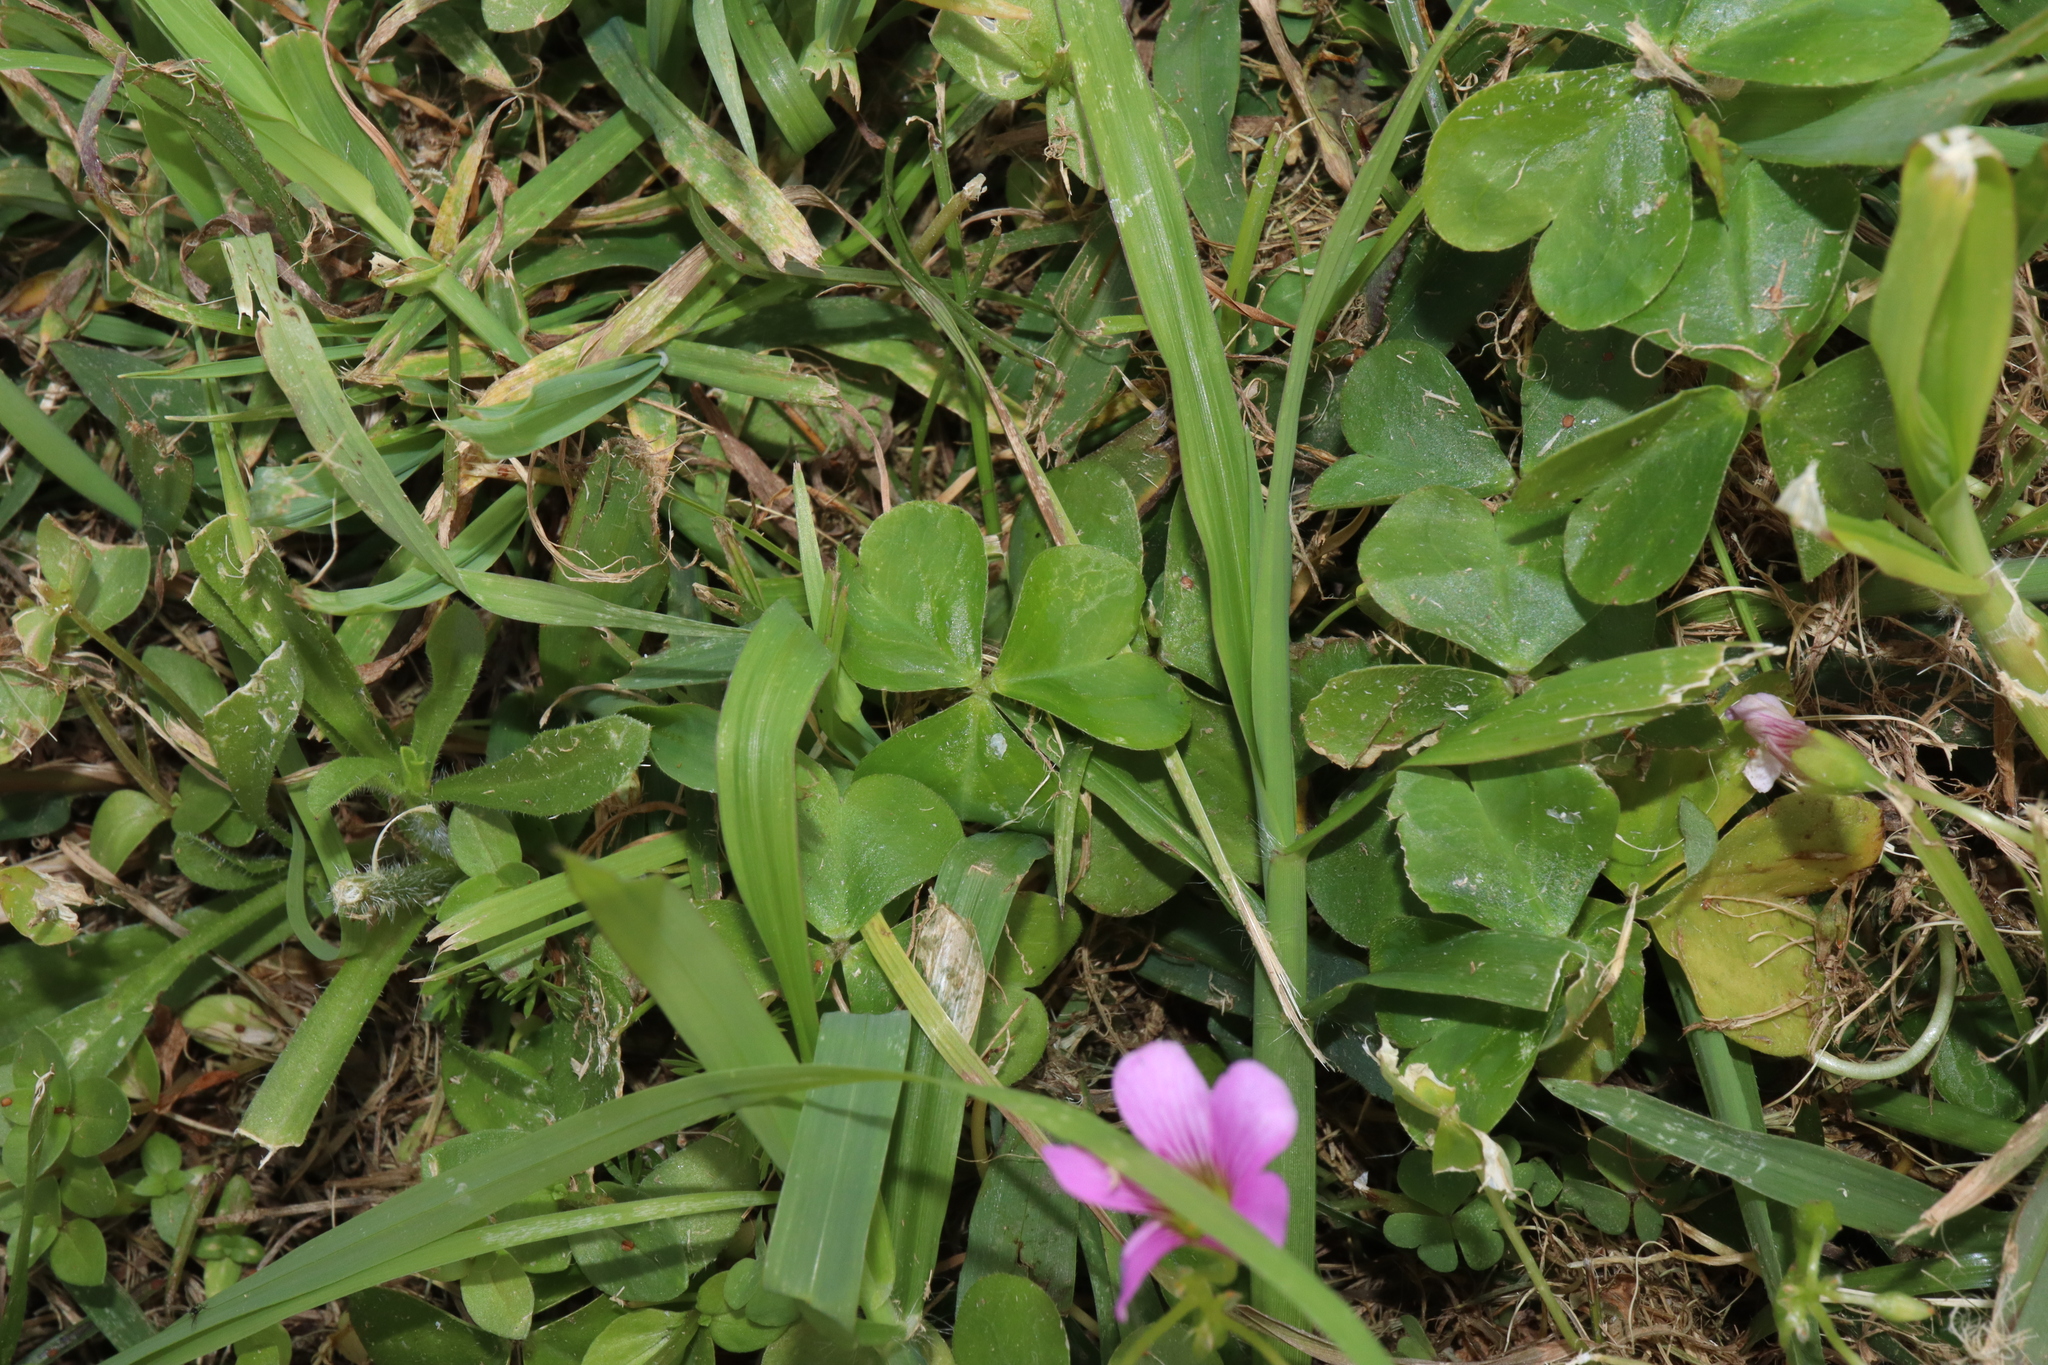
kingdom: Plantae
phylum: Tracheophyta
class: Magnoliopsida
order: Oxalidales
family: Oxalidaceae
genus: Oxalis
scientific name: Oxalis debilis
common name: Large-flowered pink-sorrel
